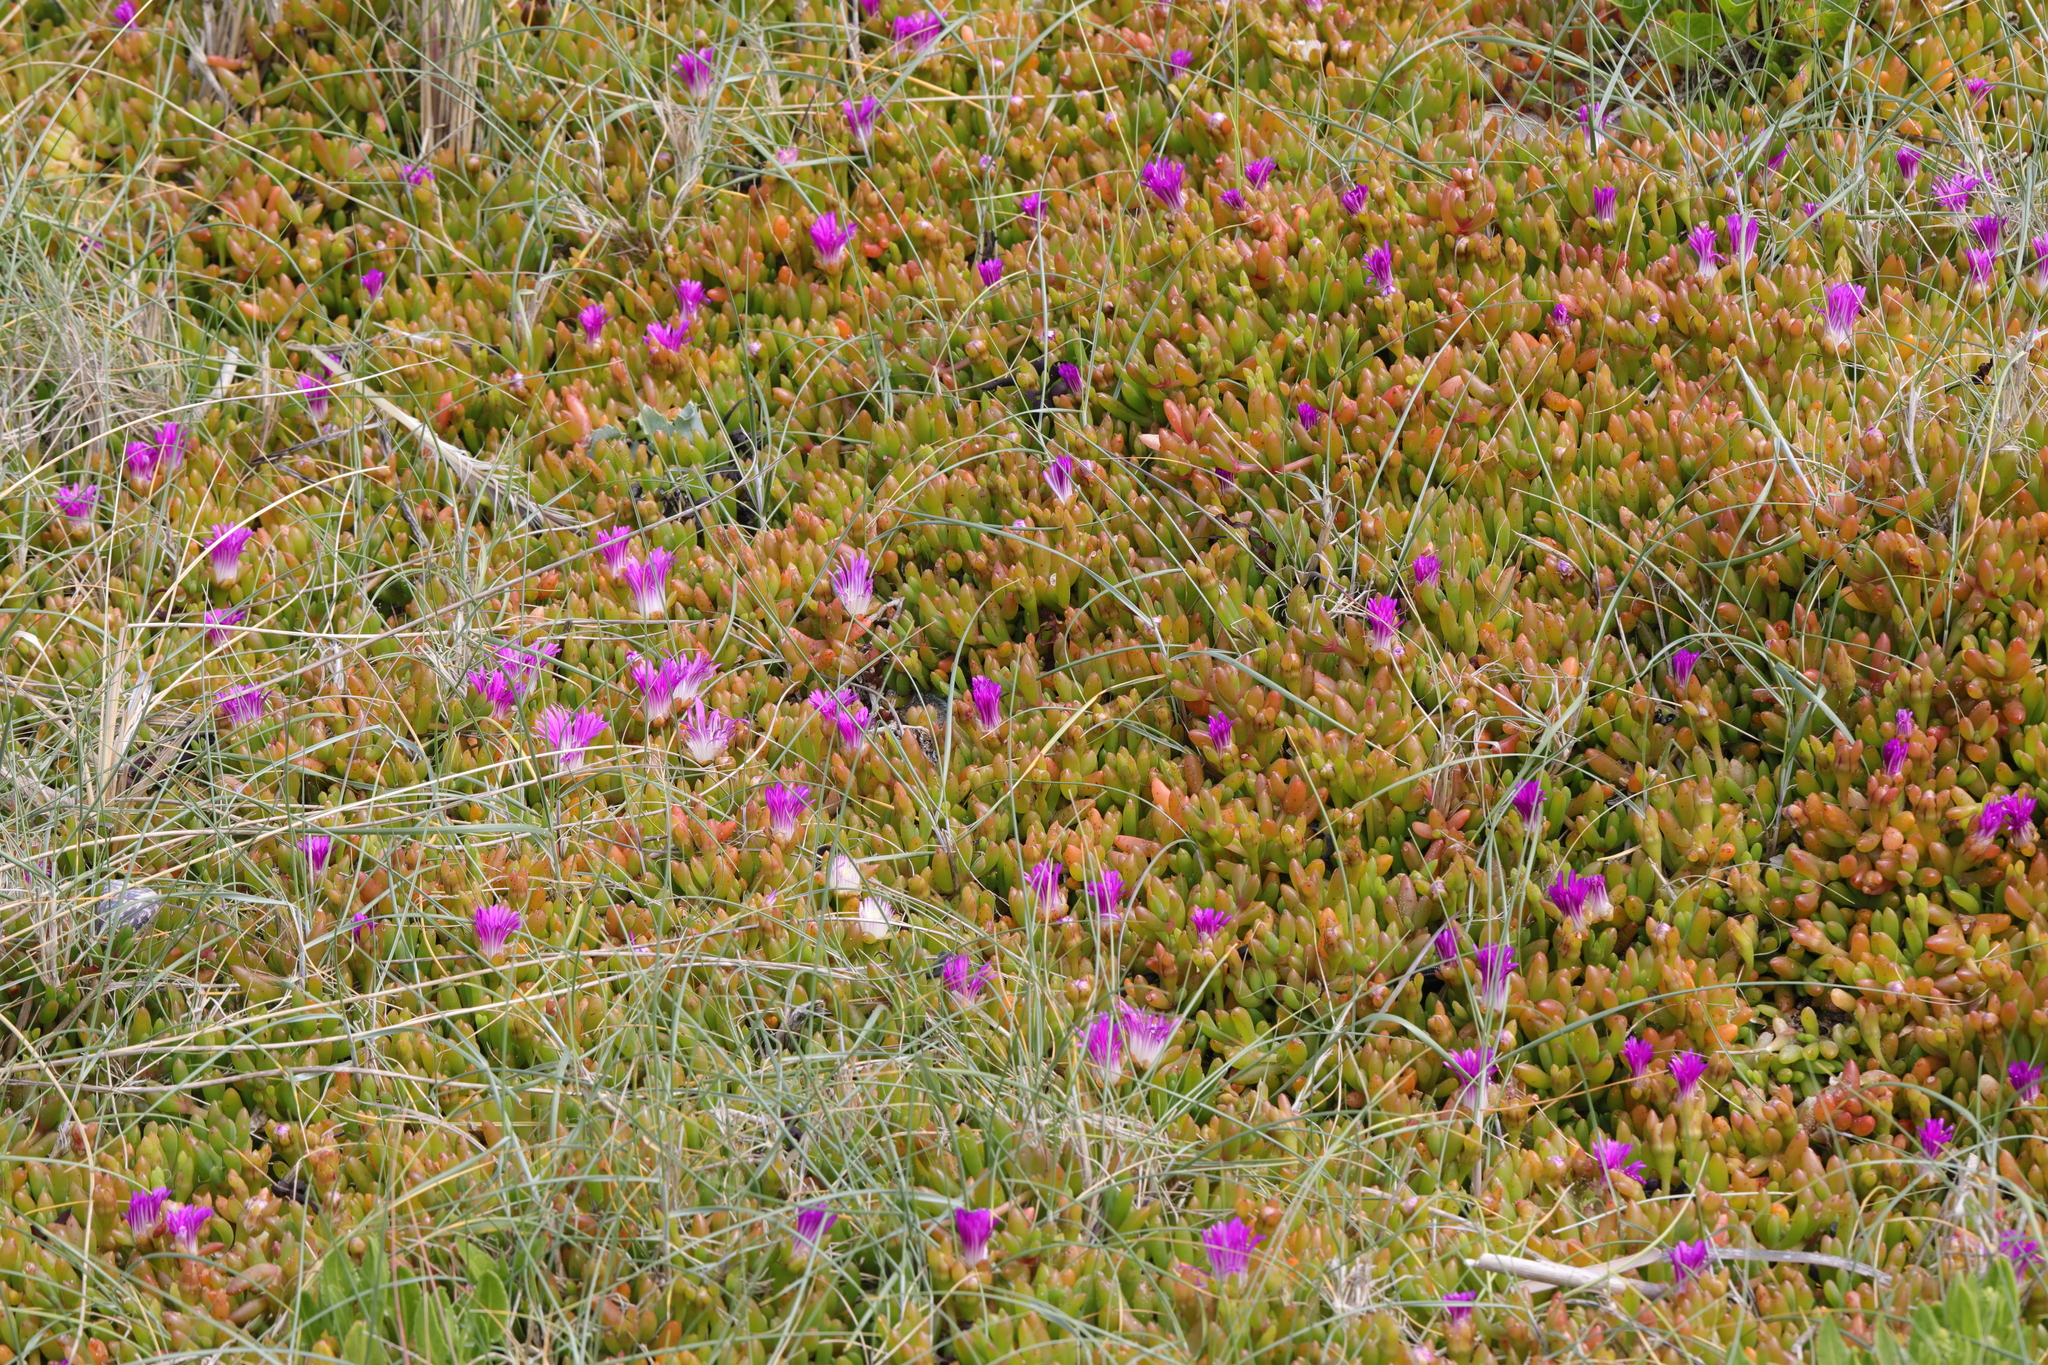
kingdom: Plantae
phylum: Tracheophyta
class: Magnoliopsida
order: Caryophyllales
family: Aizoaceae
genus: Disphyma
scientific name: Disphyma crassifolium
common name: Purple dewplant
